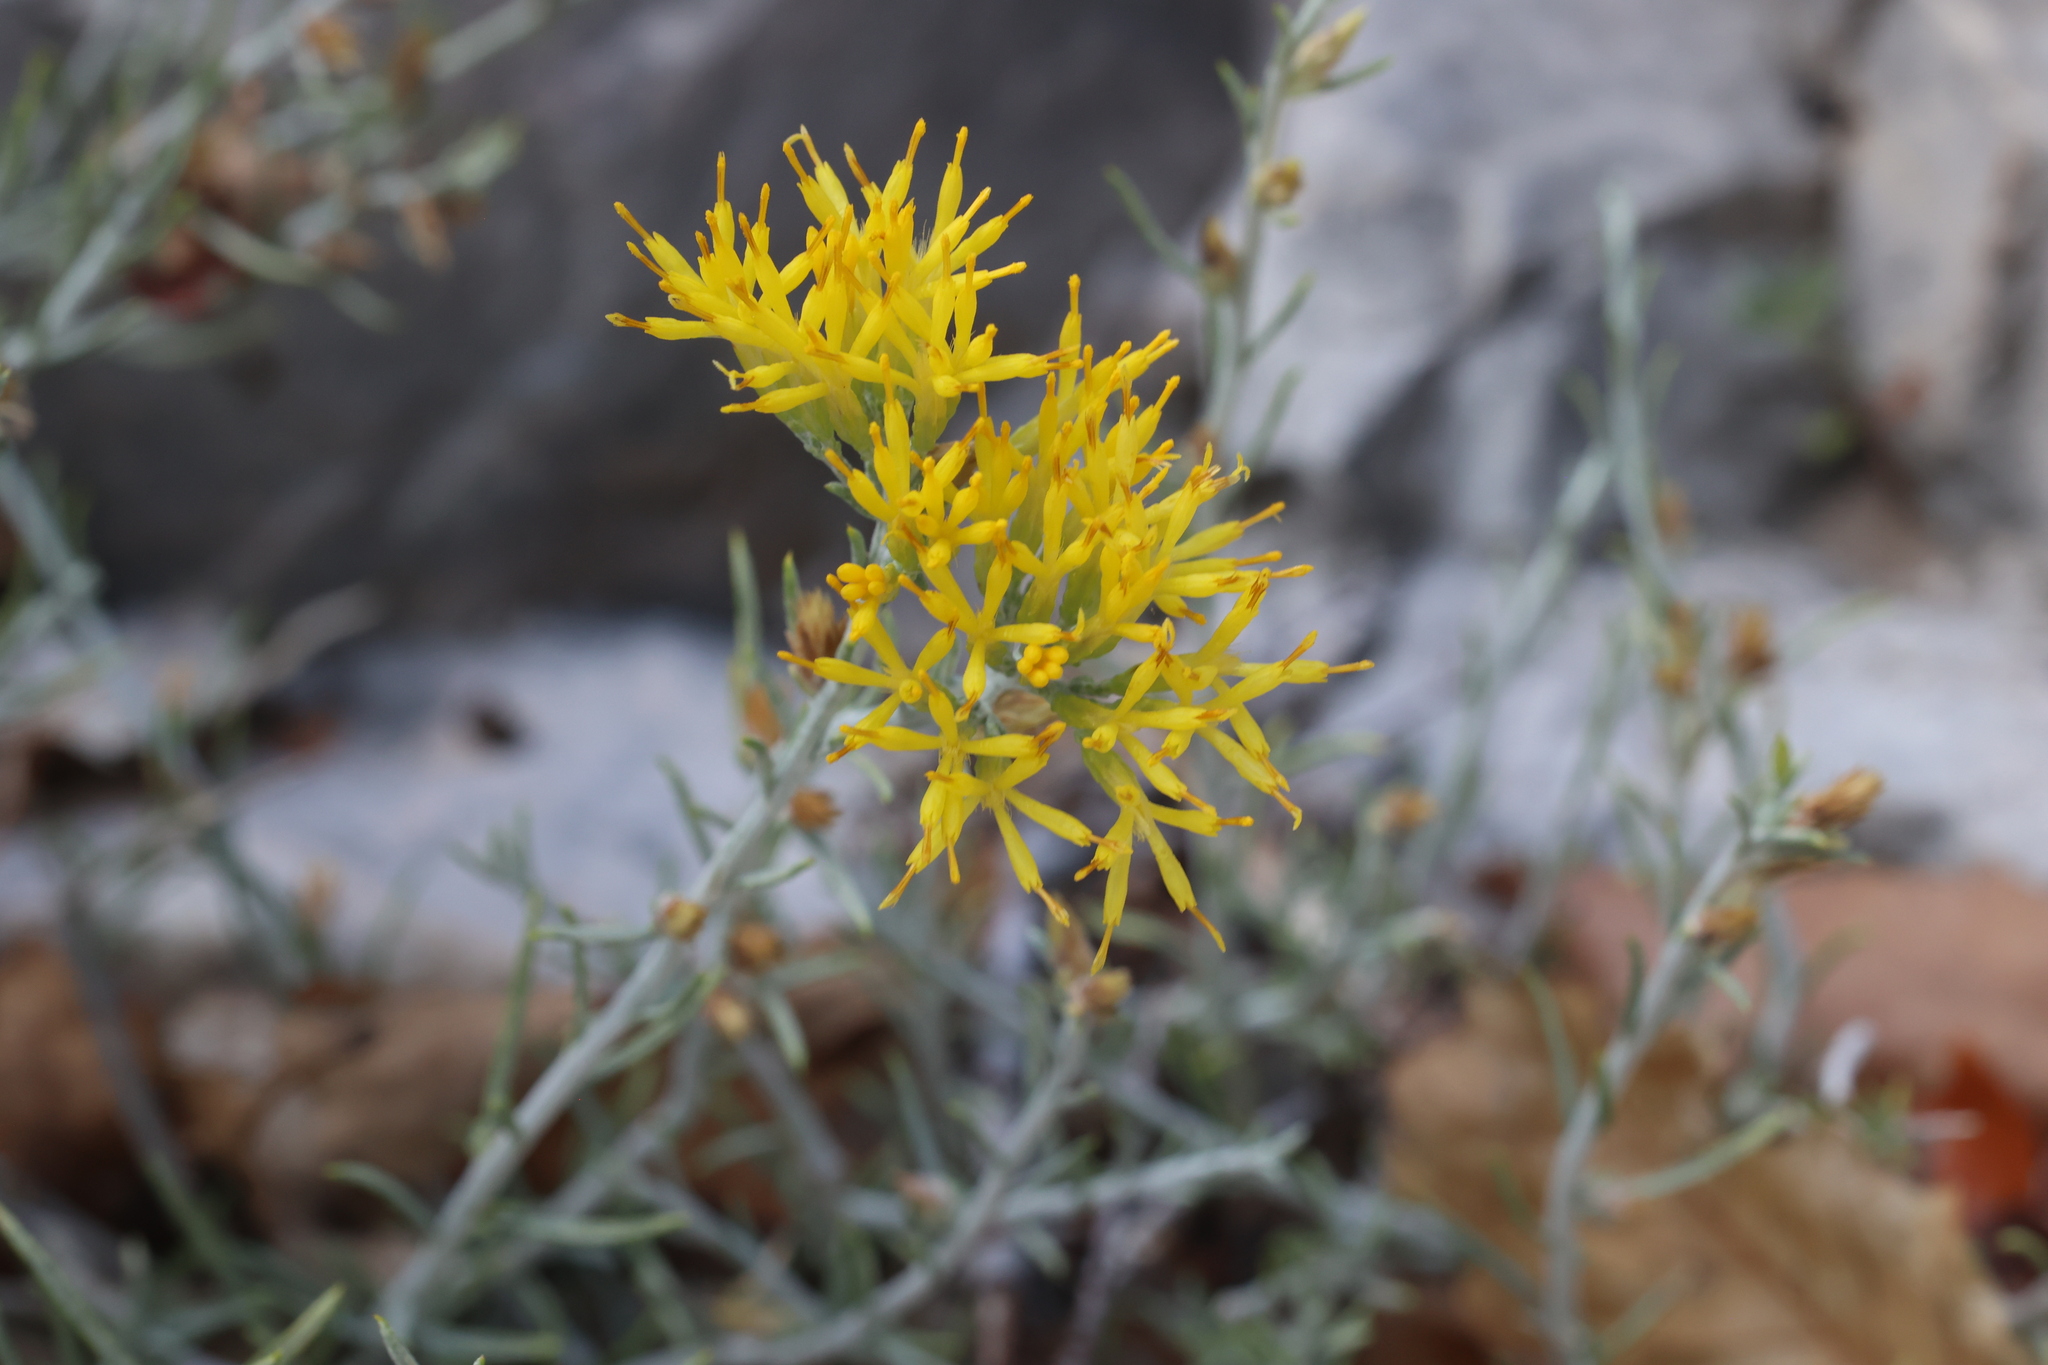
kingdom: Plantae
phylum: Tracheophyta
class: Magnoliopsida
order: Asterales
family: Asteraceae
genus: Ericameria
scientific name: Ericameria nauseosa
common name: Rubber rabbitbrush
